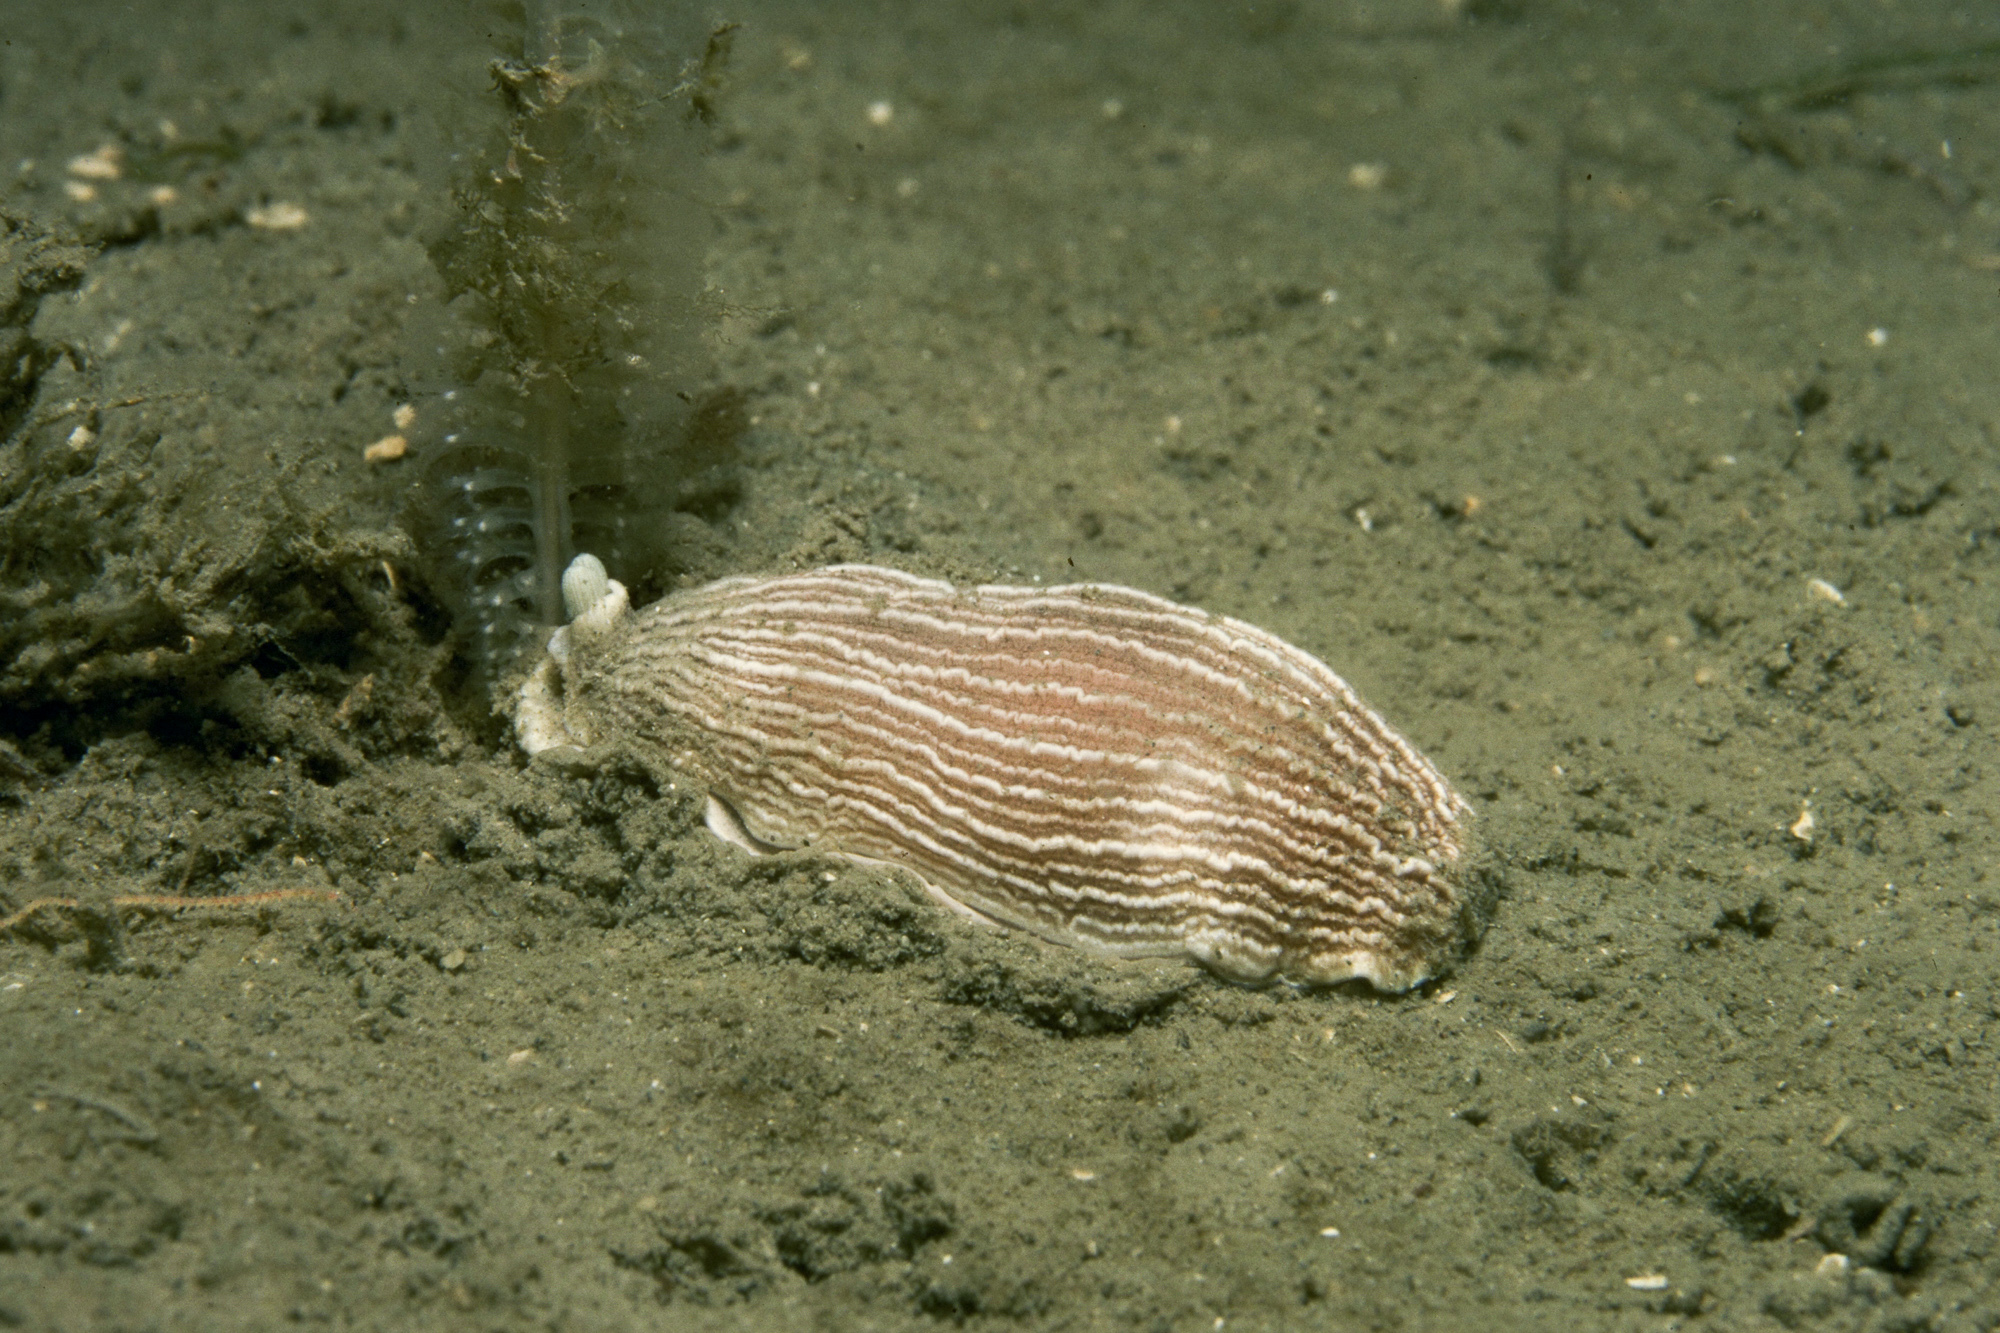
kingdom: Animalia
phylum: Mollusca
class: Gastropoda
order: Nudibranchia
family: Arminidae
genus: Armina
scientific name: Armina loveni
